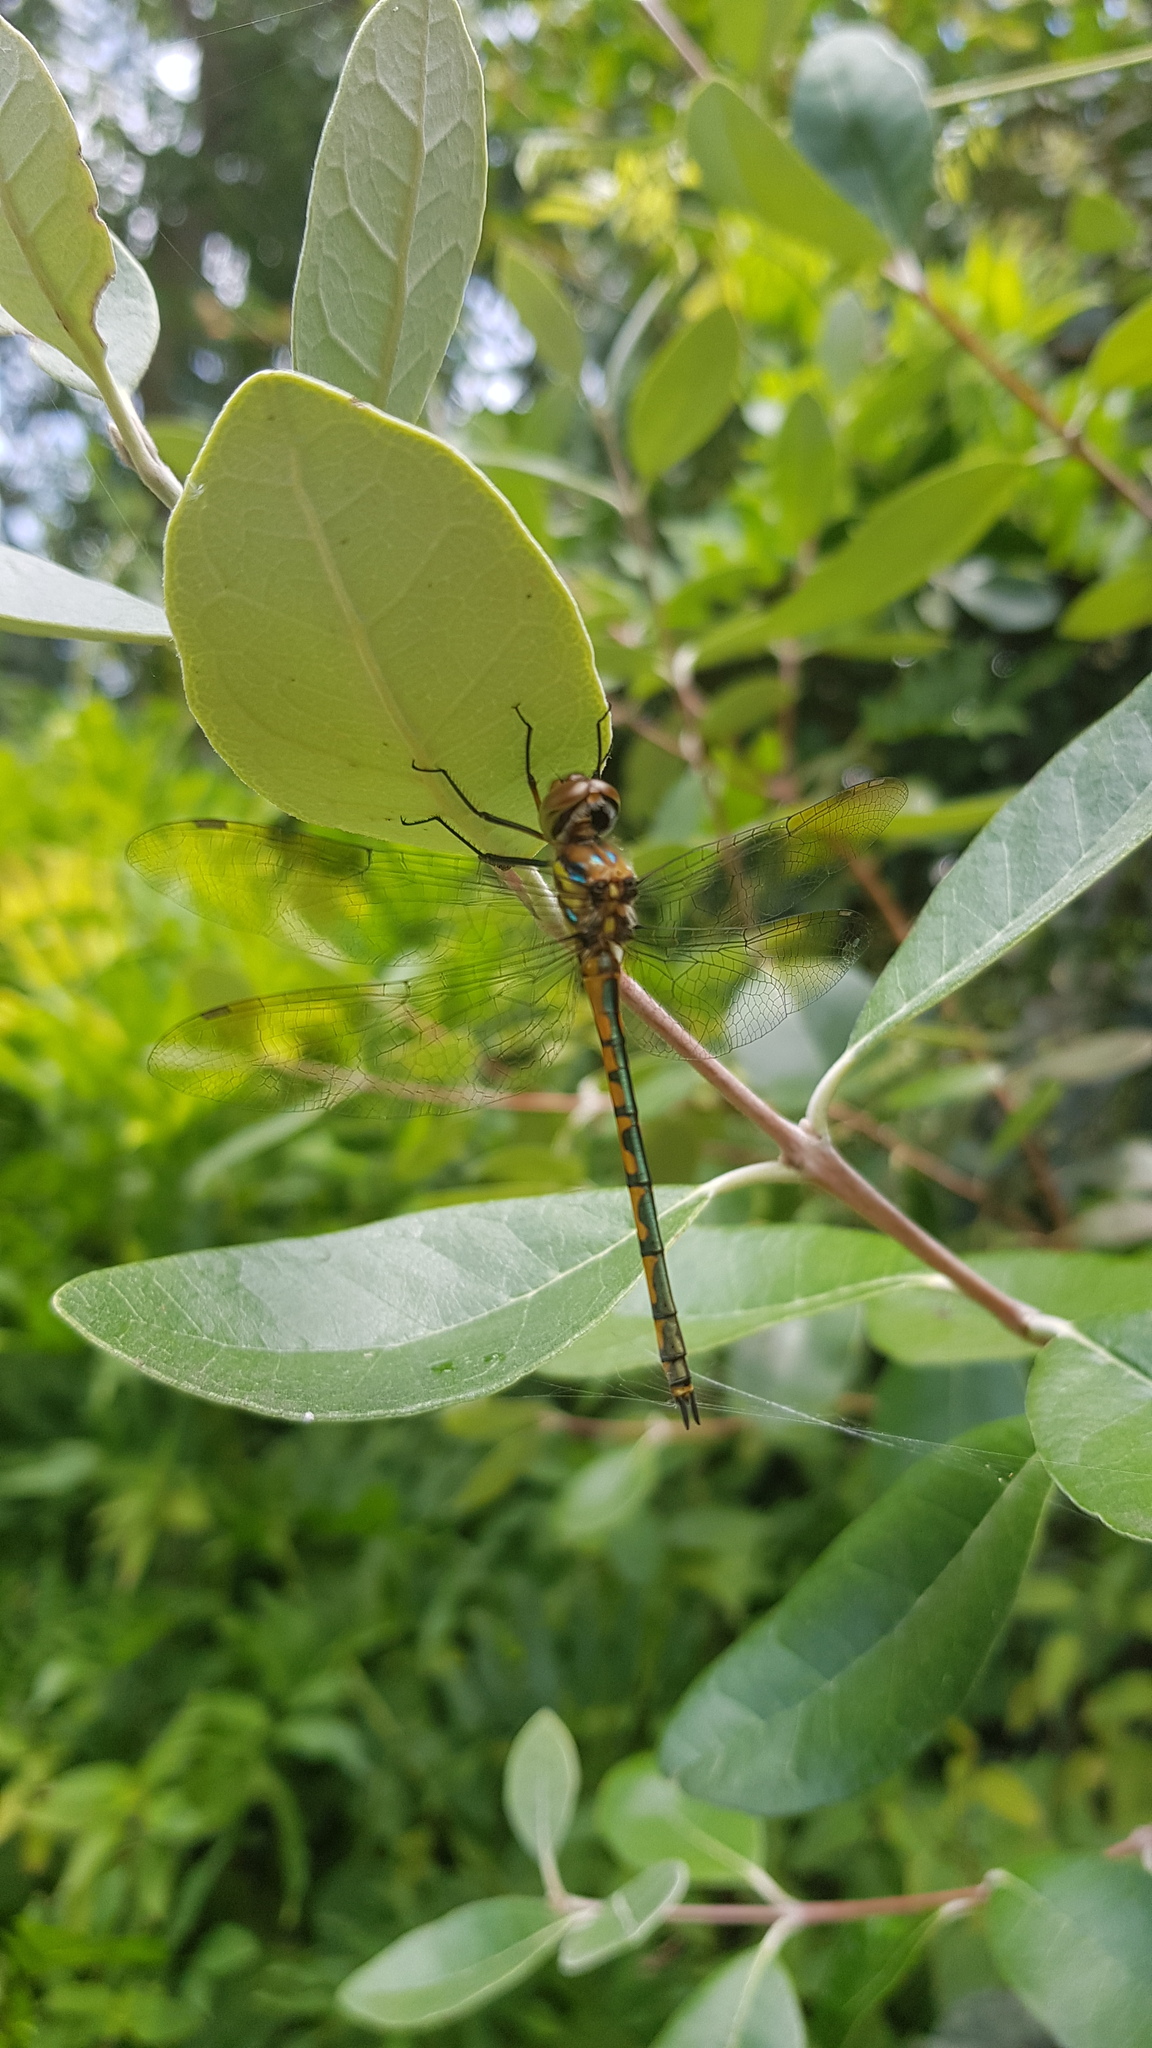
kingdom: Animalia
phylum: Arthropoda
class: Insecta
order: Odonata
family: Corduliidae
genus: Hemicordulia
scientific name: Hemicordulia australiae
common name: Sentry dragonfly
